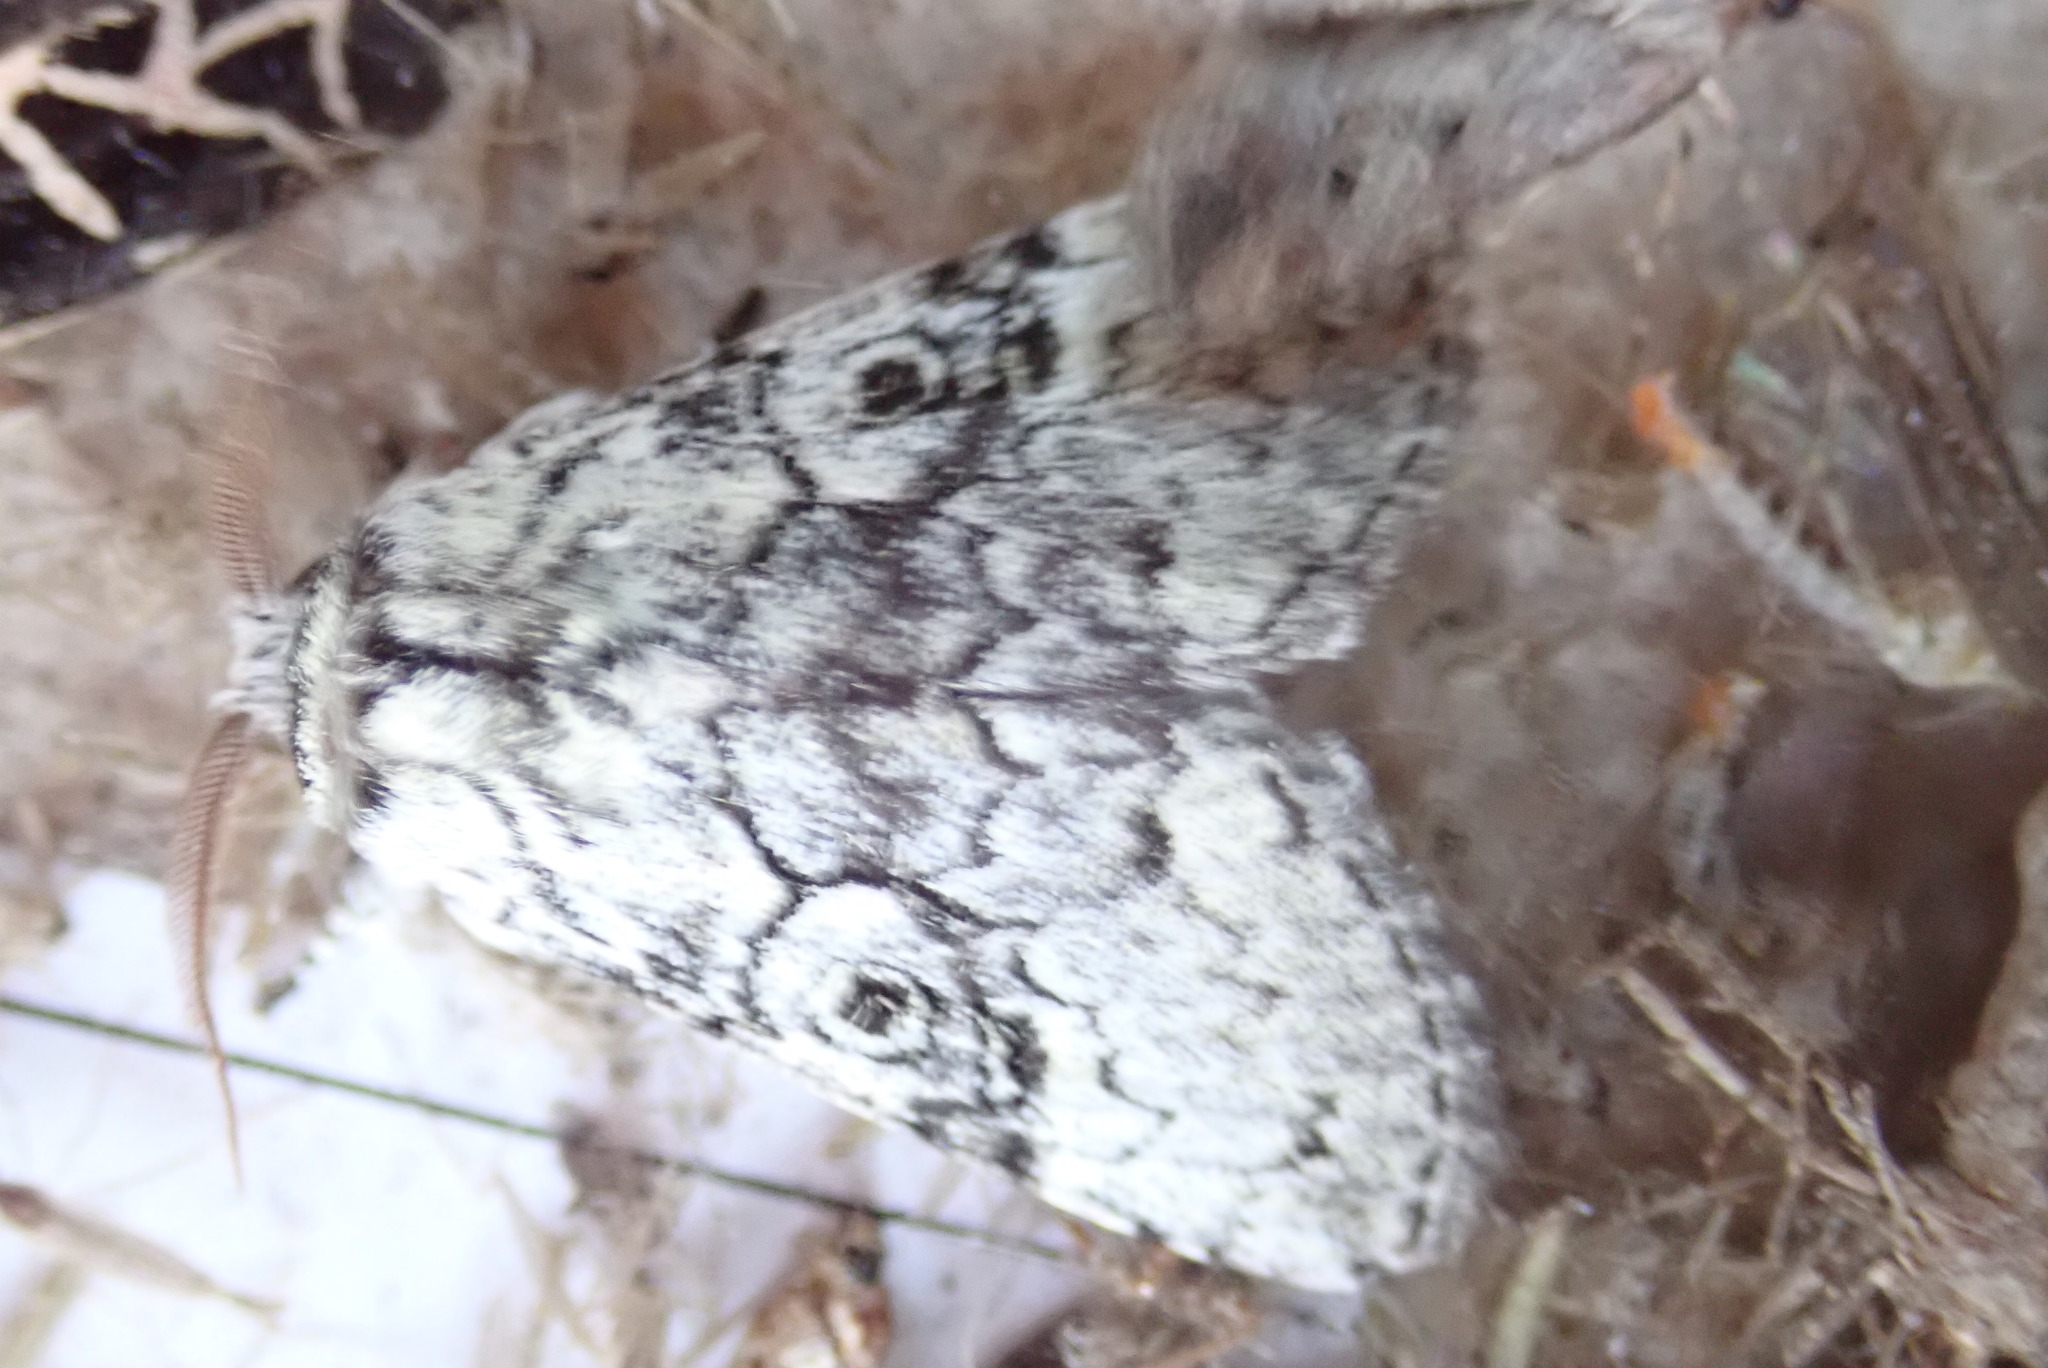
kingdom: Animalia
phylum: Arthropoda
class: Insecta
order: Lepidoptera
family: Noctuidae
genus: Charadra
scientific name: Charadra deridens
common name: Marbled tuffet
